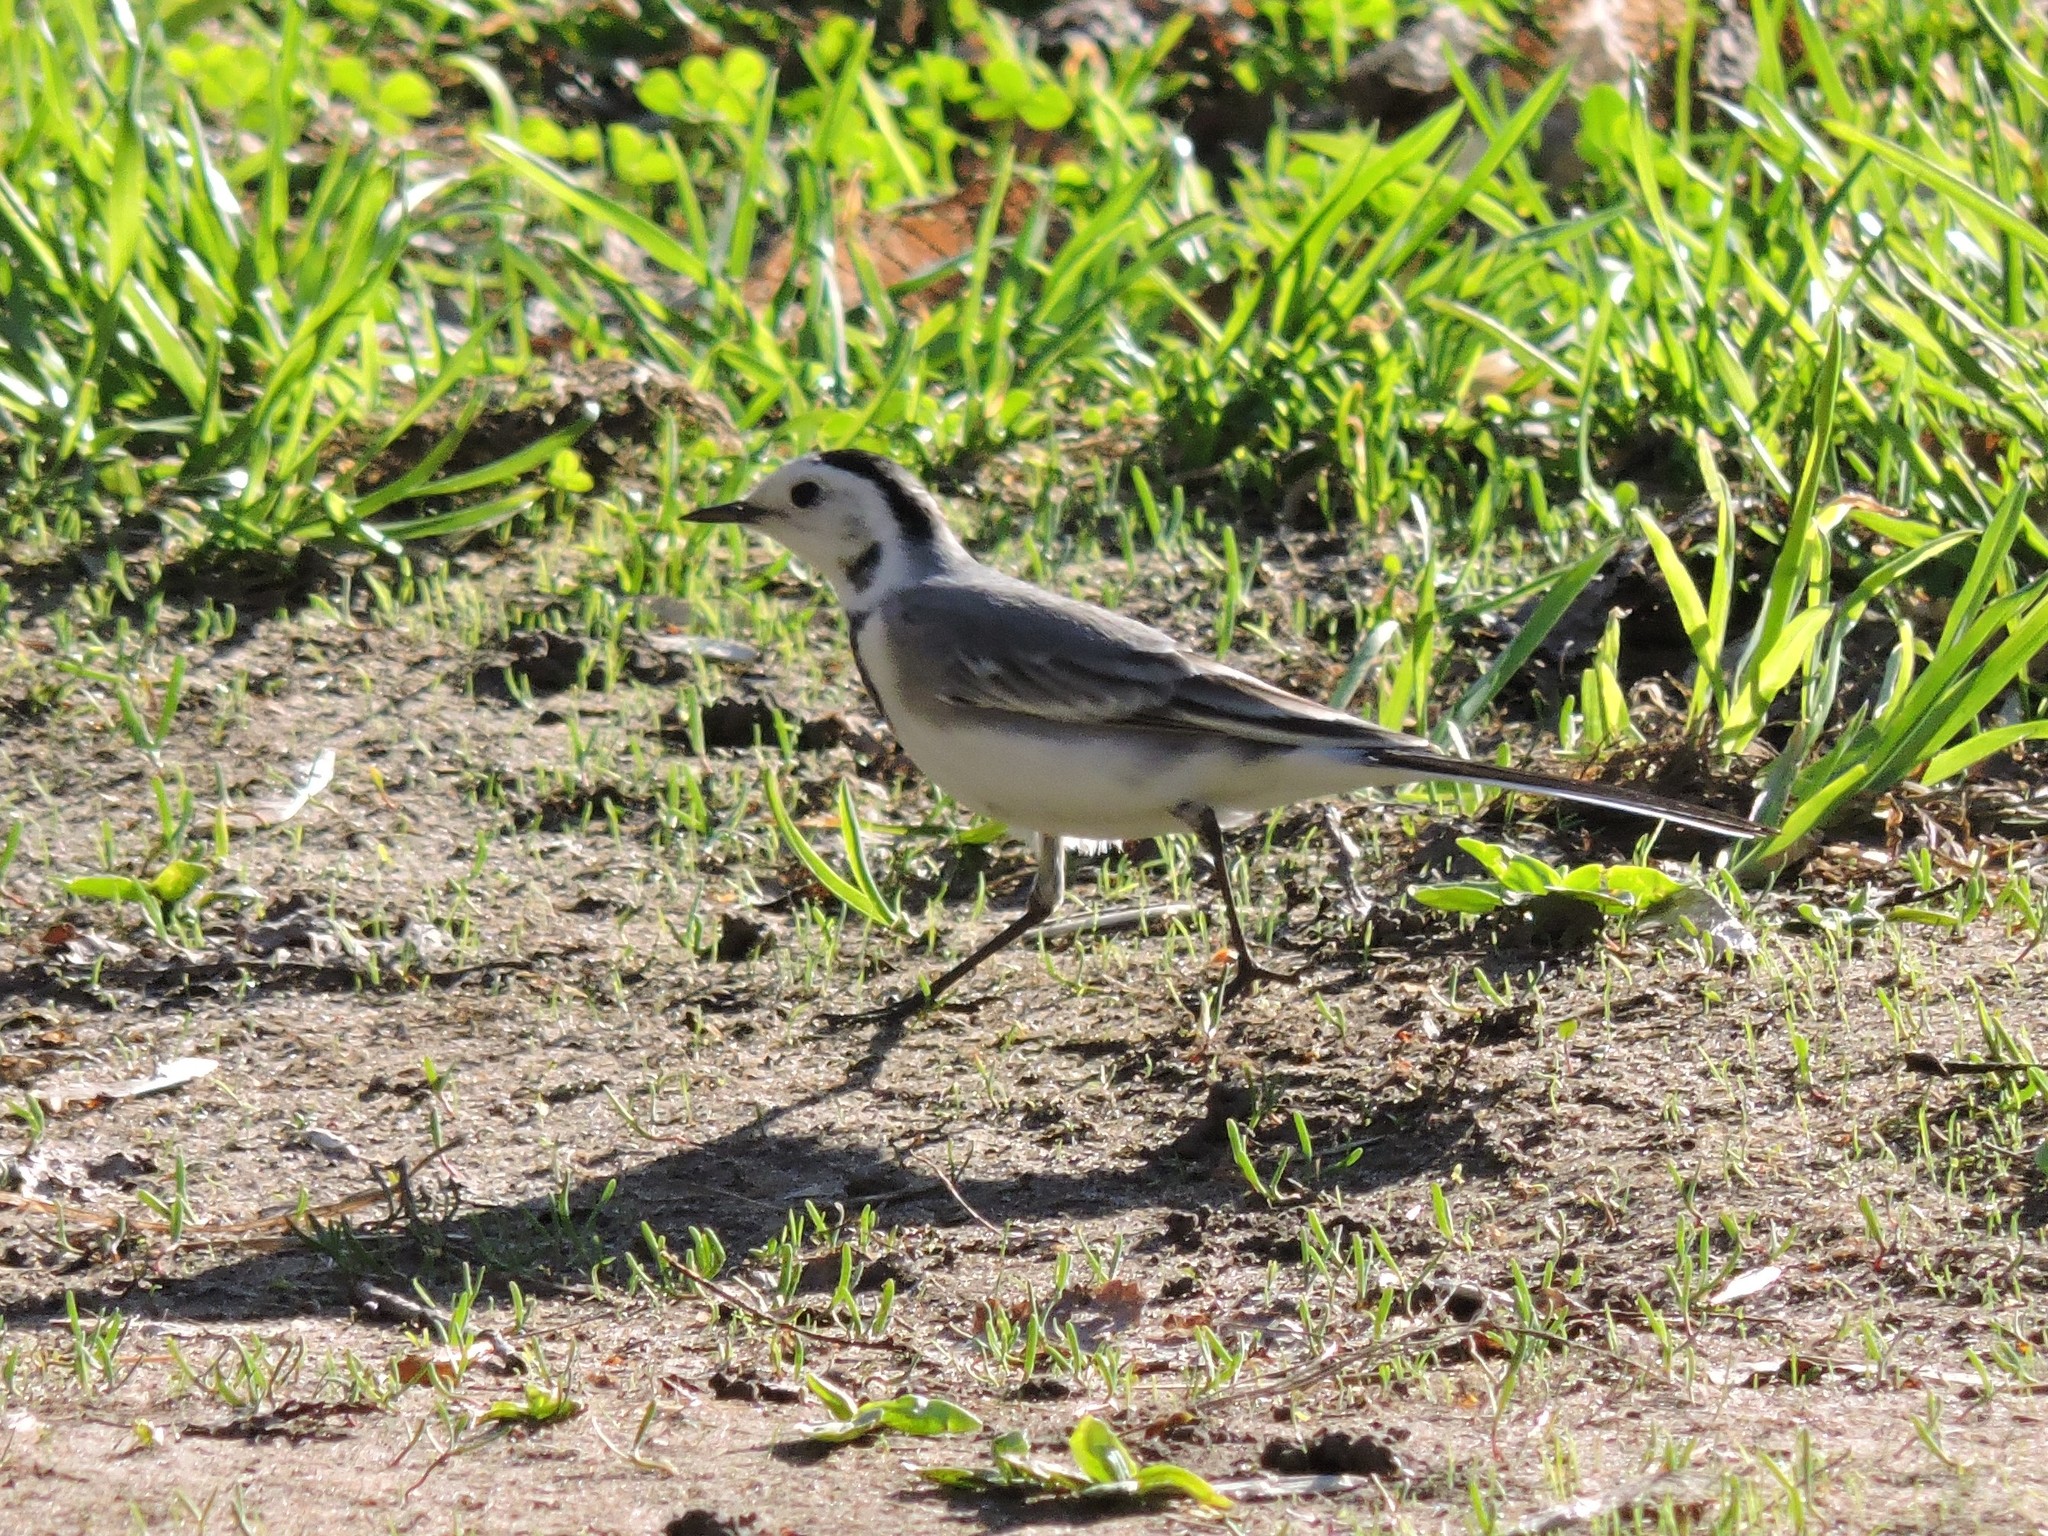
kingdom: Animalia
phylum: Chordata
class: Aves
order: Passeriformes
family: Motacillidae
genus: Motacilla
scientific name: Motacilla alba
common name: White wagtail
